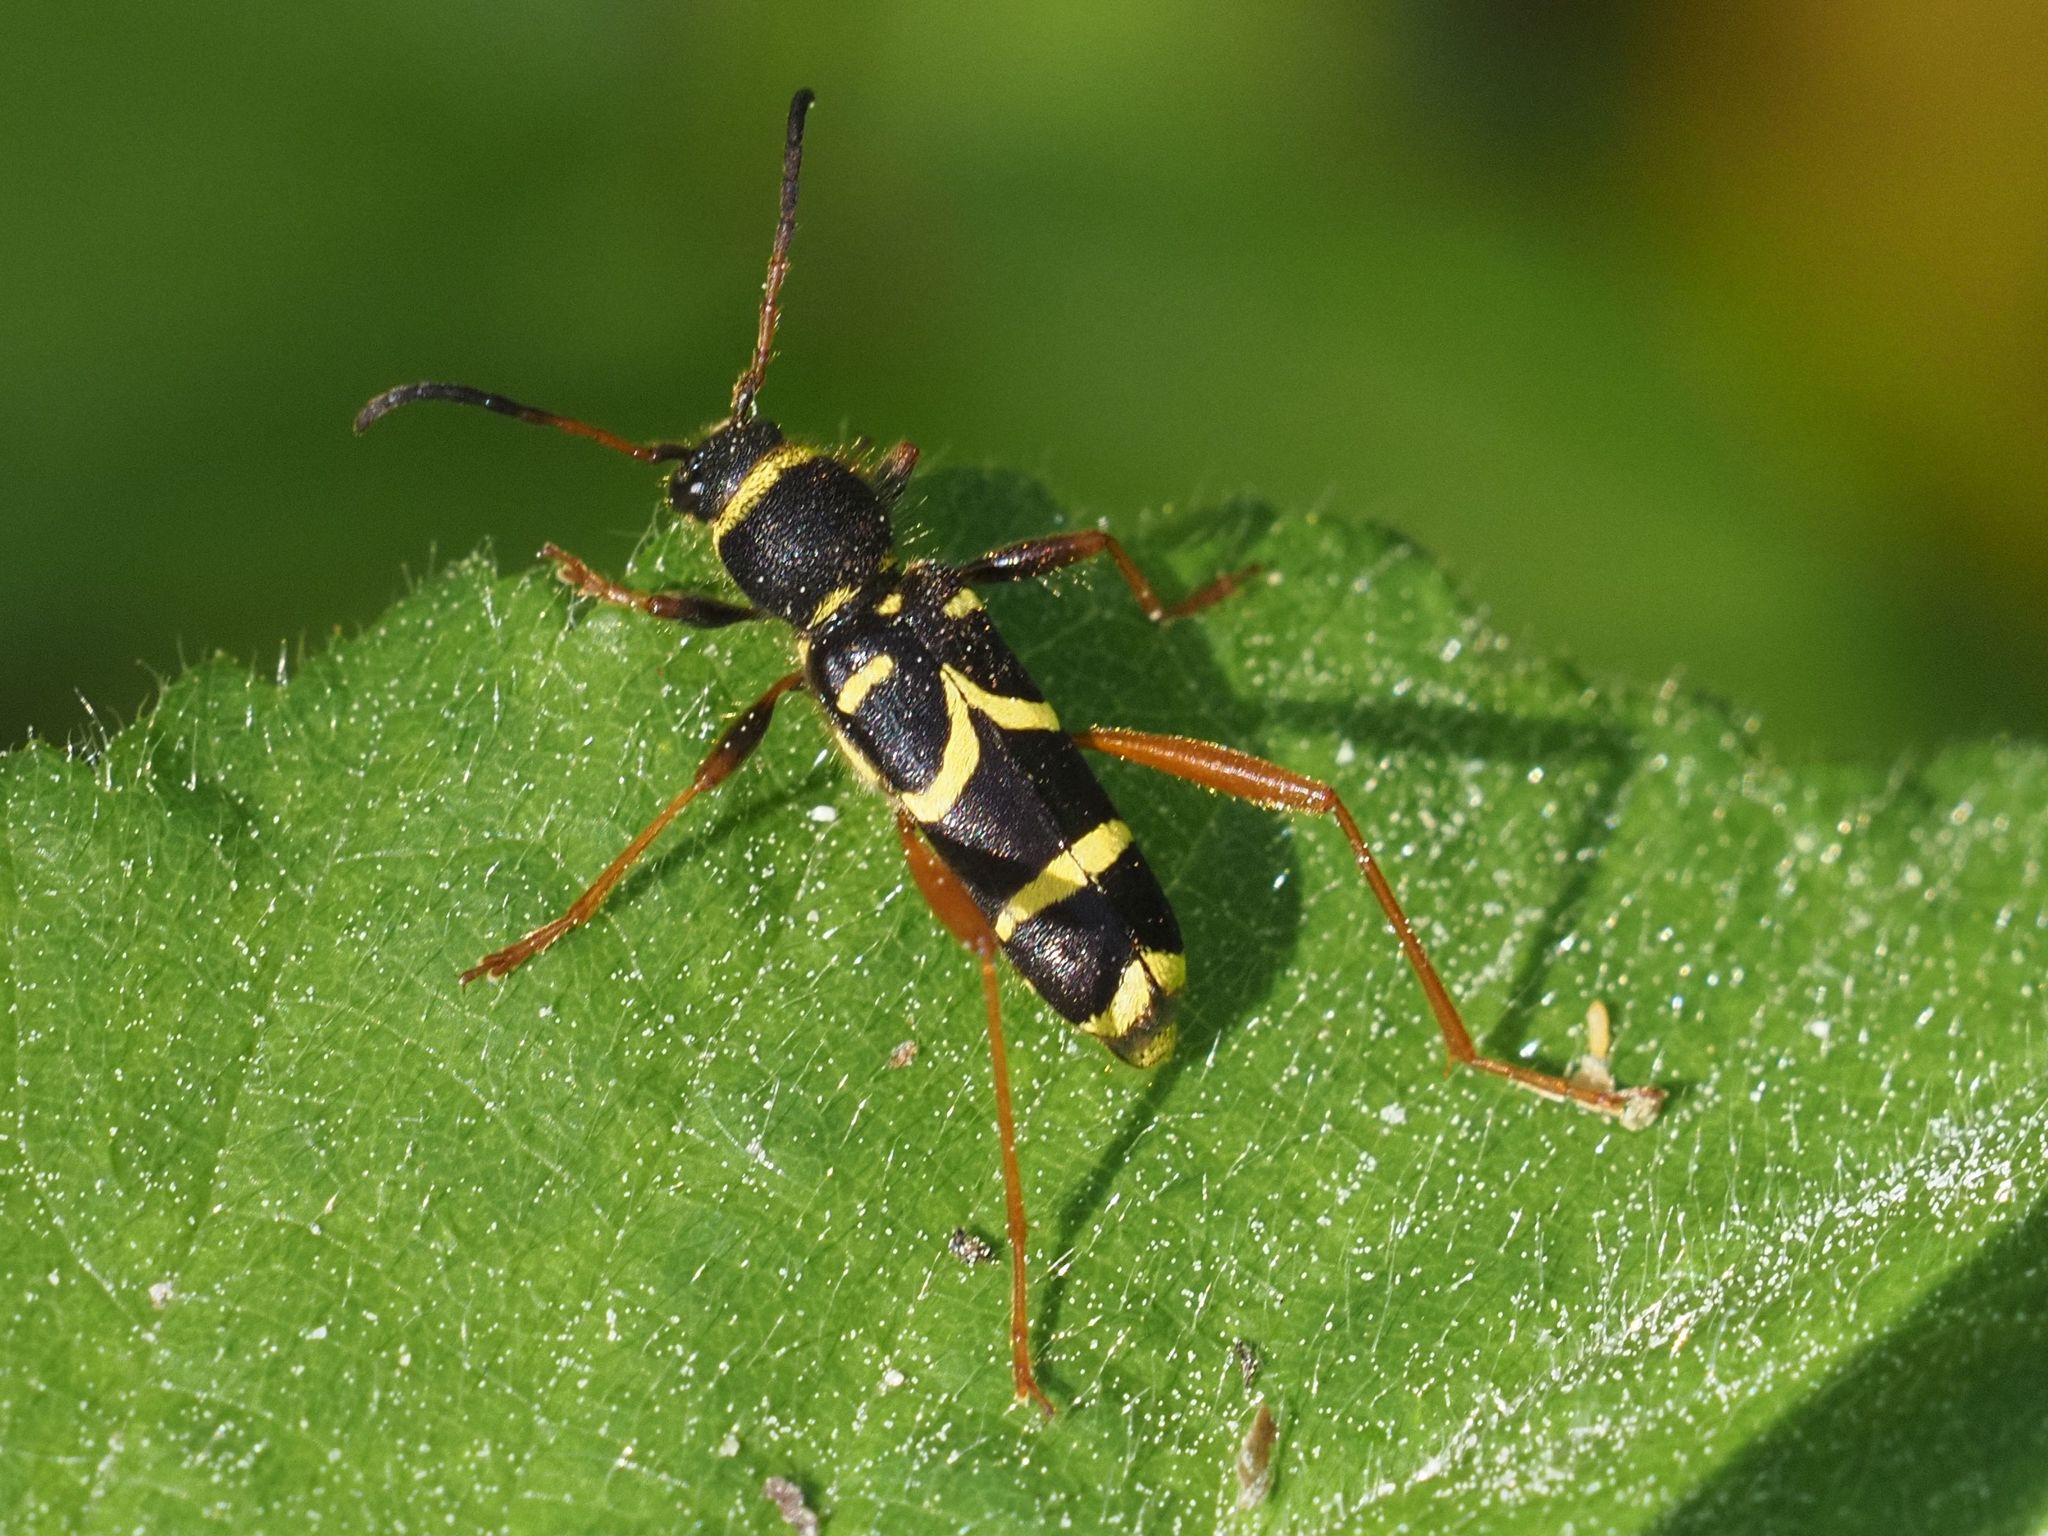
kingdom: Animalia
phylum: Arthropoda
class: Insecta
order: Coleoptera
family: Cerambycidae
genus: Clytus
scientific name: Clytus arietis
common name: Wasp beetle
